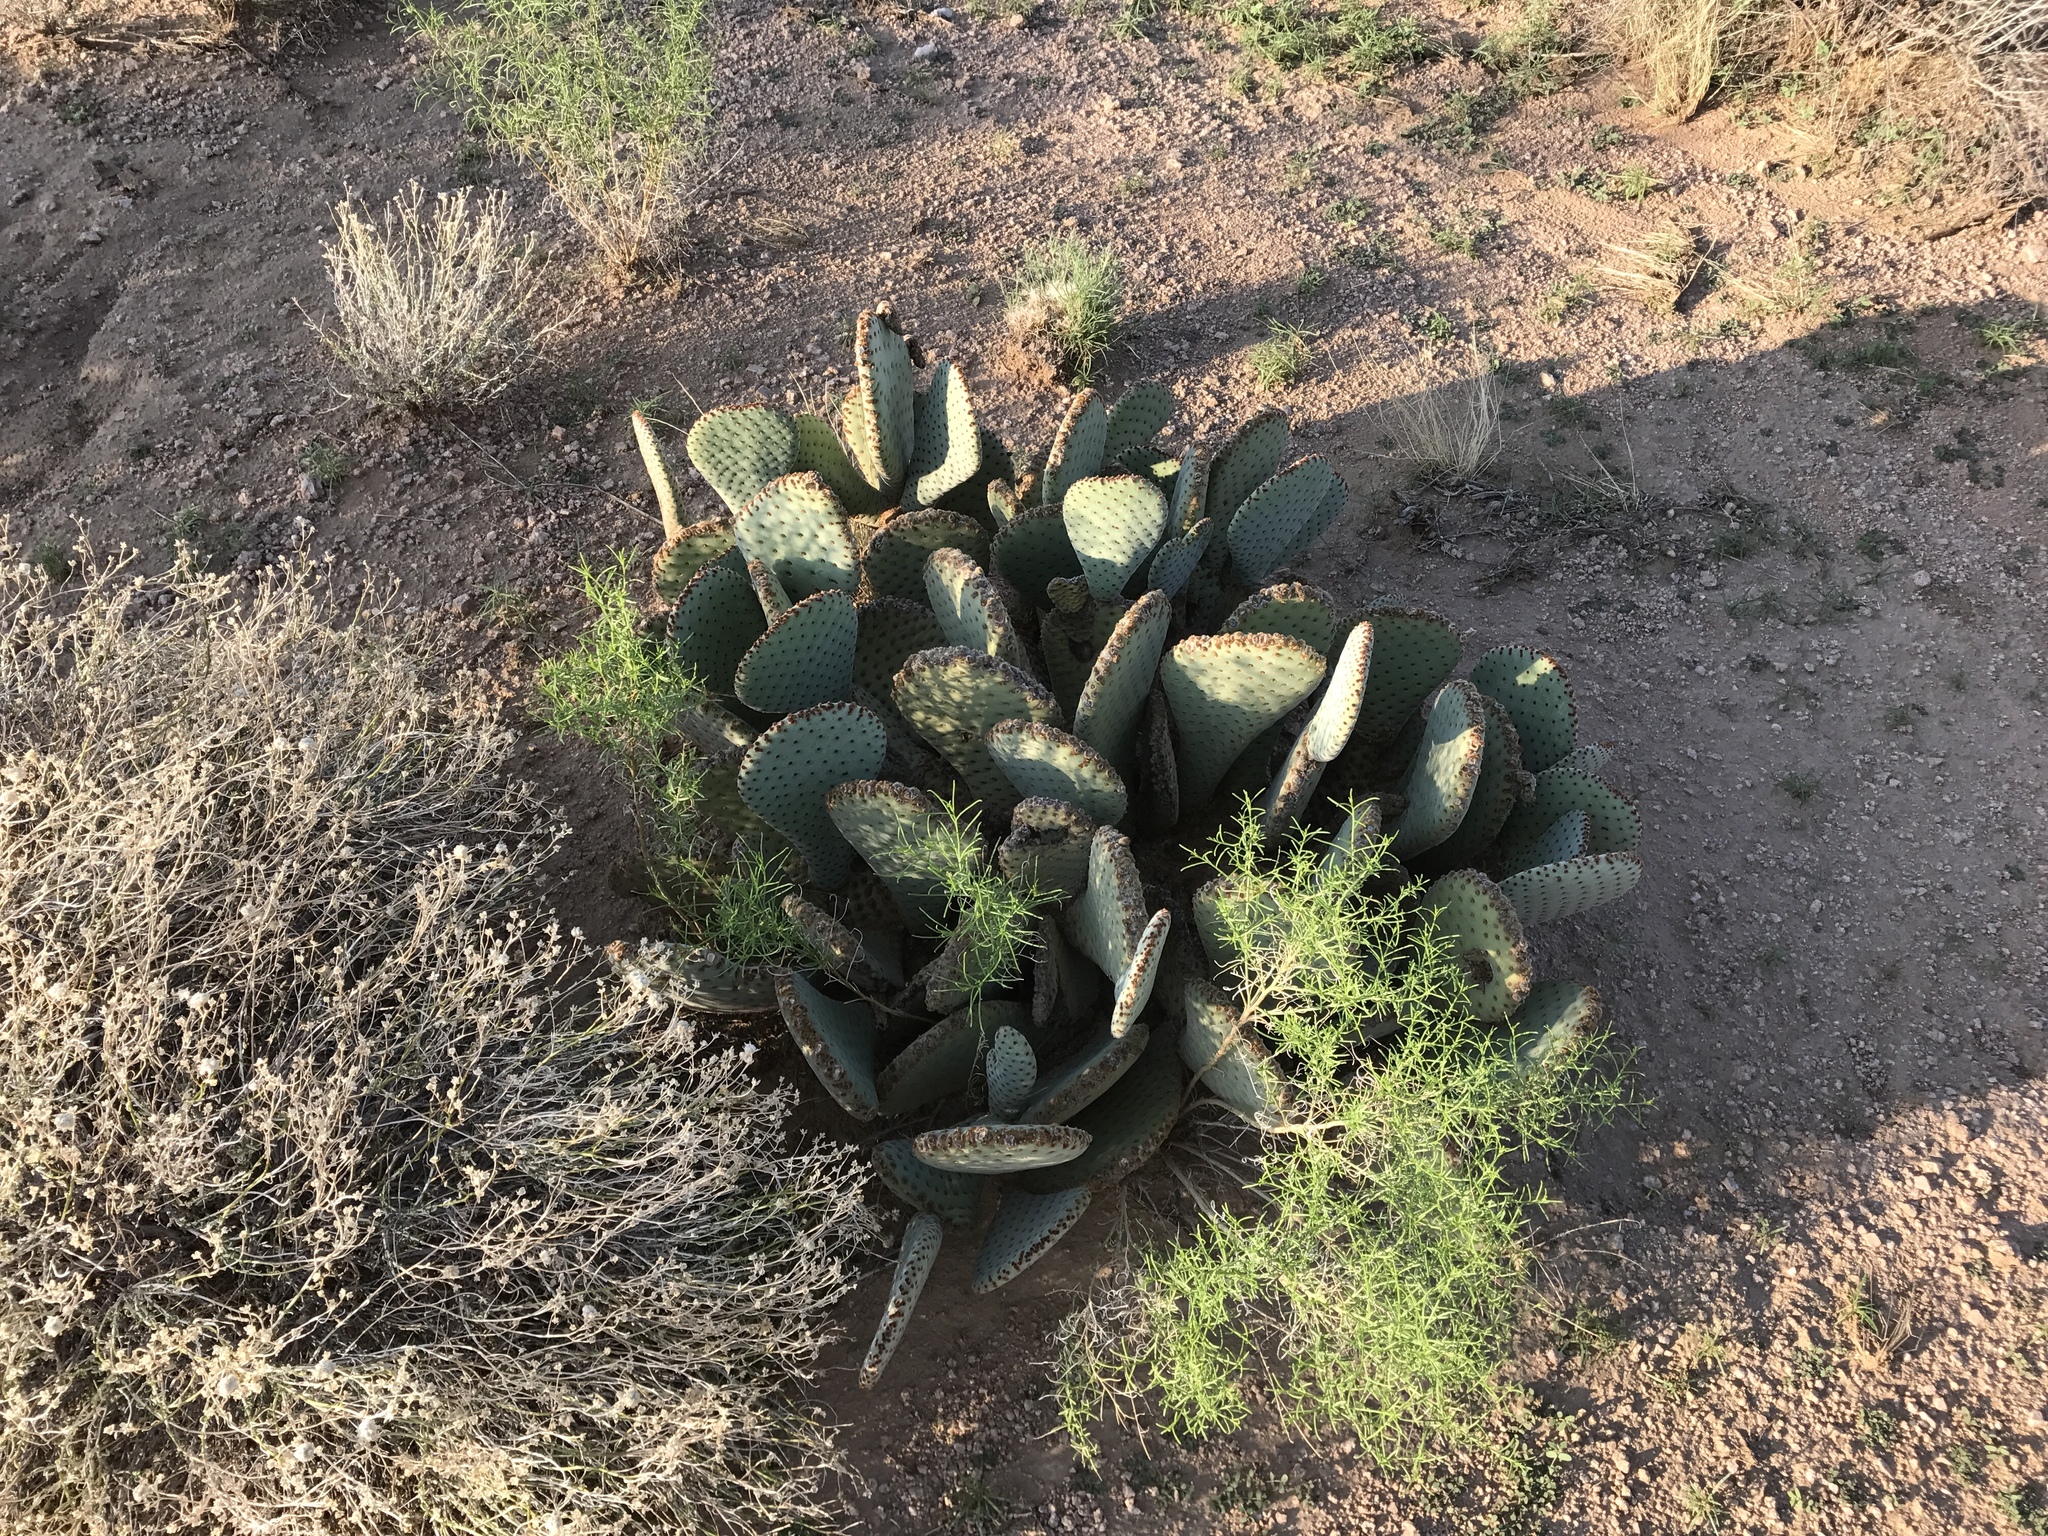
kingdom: Plantae
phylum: Tracheophyta
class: Magnoliopsida
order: Caryophyllales
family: Cactaceae
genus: Opuntia
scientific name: Opuntia basilaris
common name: Beavertail prickly-pear
